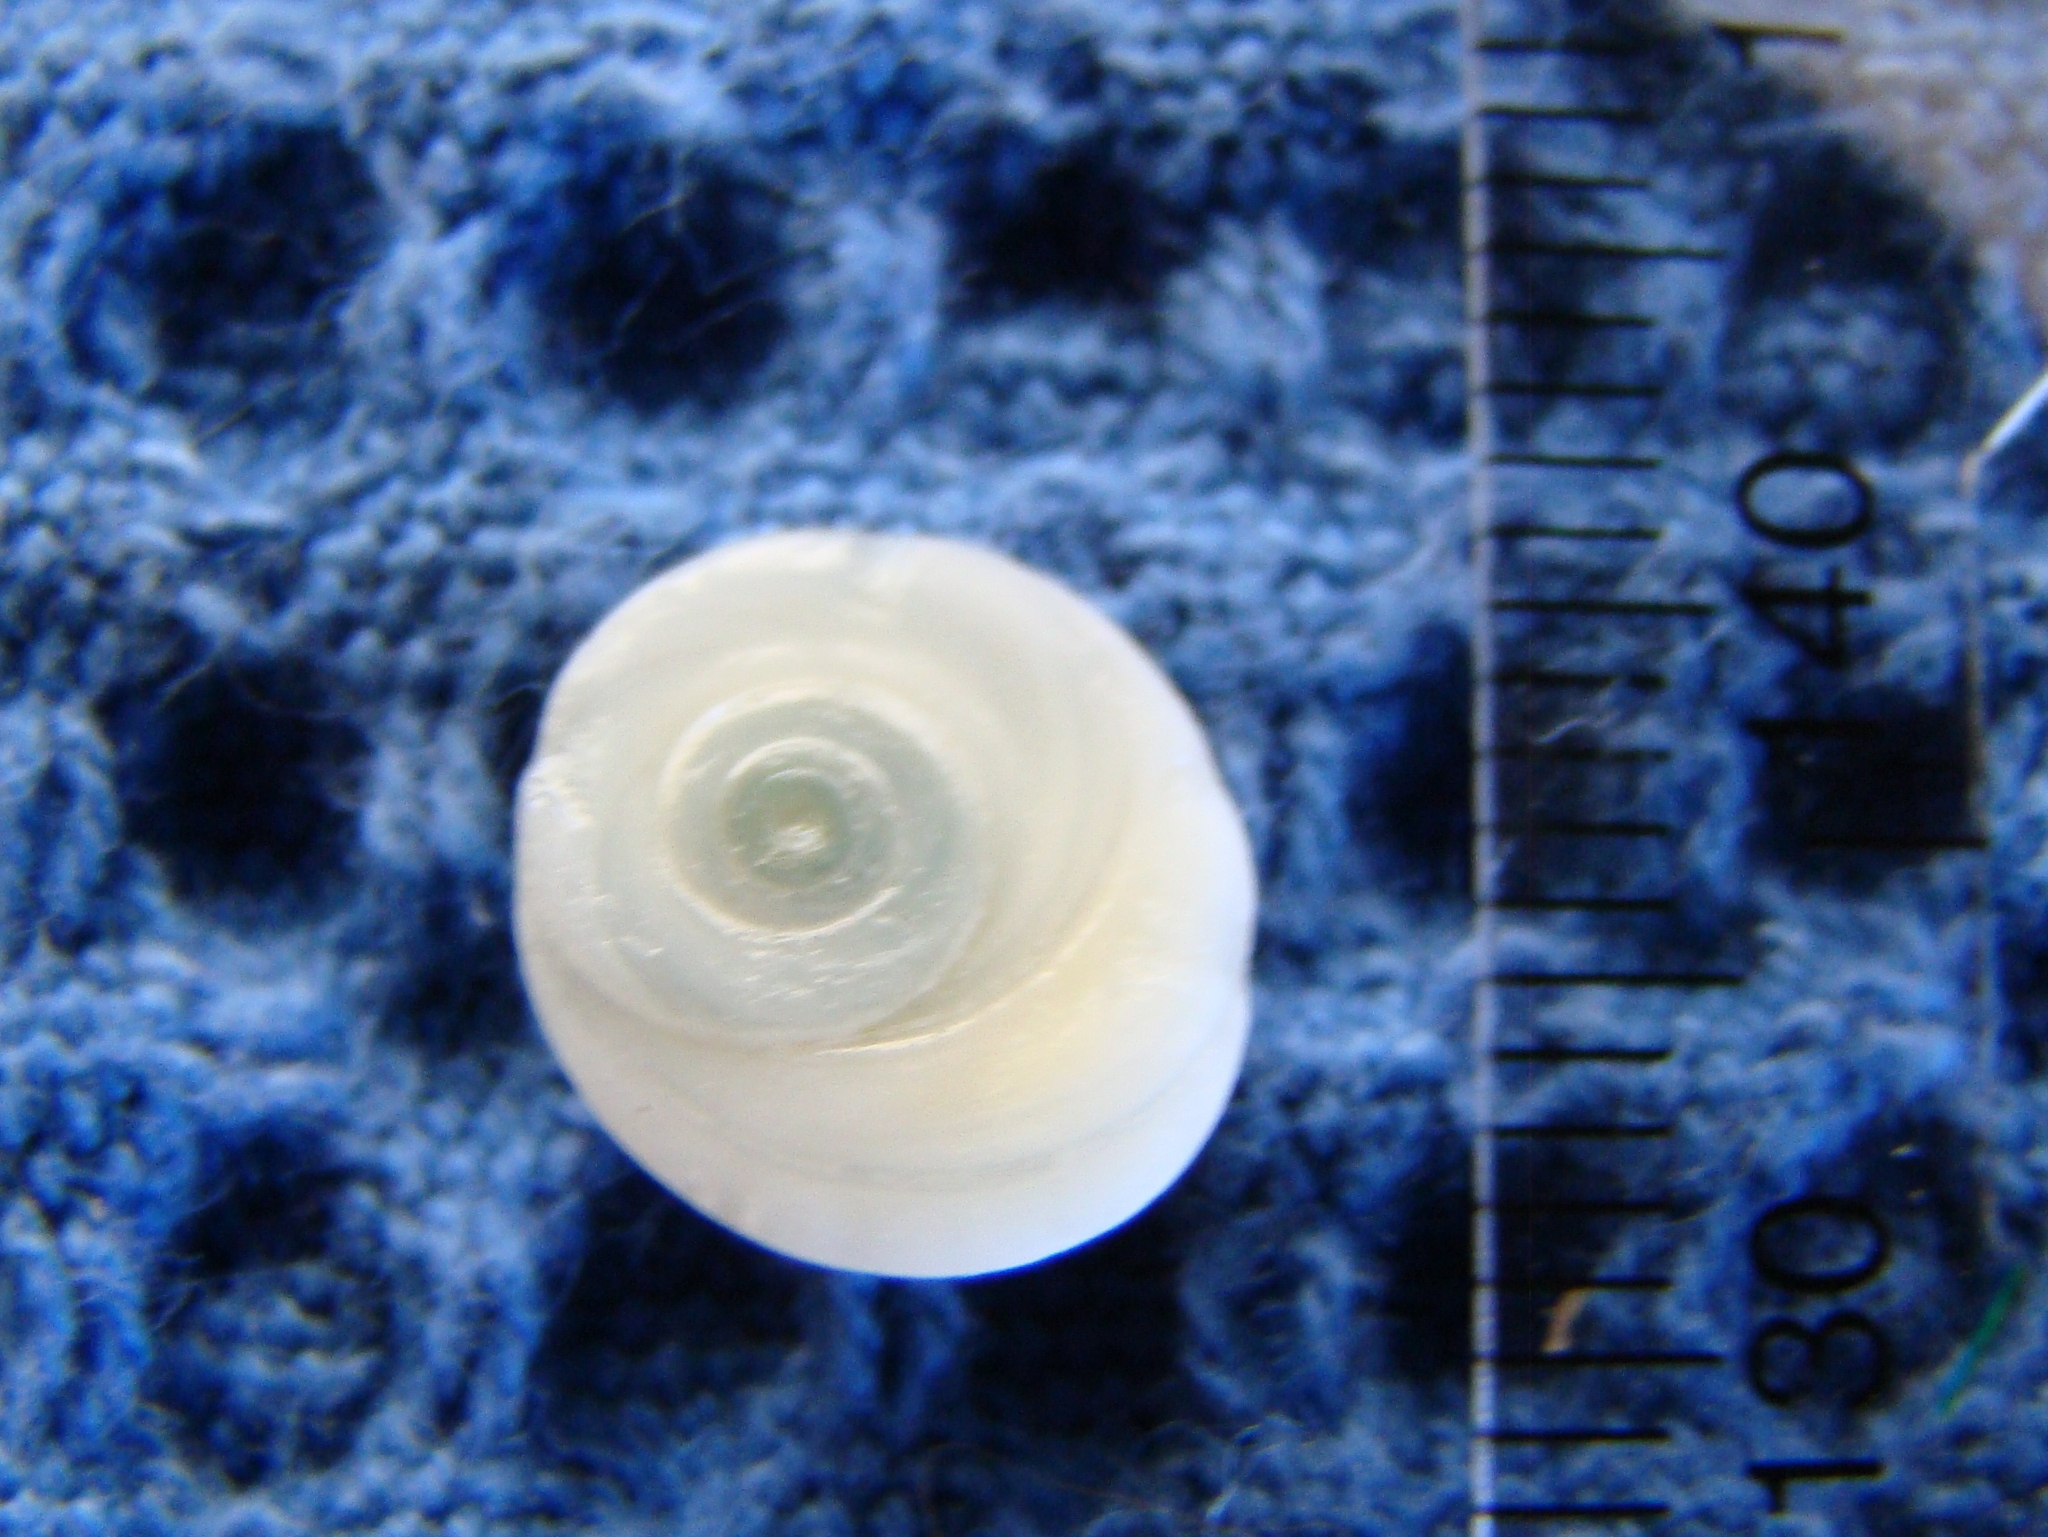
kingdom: Animalia
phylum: Mollusca
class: Gastropoda
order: Trochida
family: Turbinidae
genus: Lunella
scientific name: Lunella smaragda
